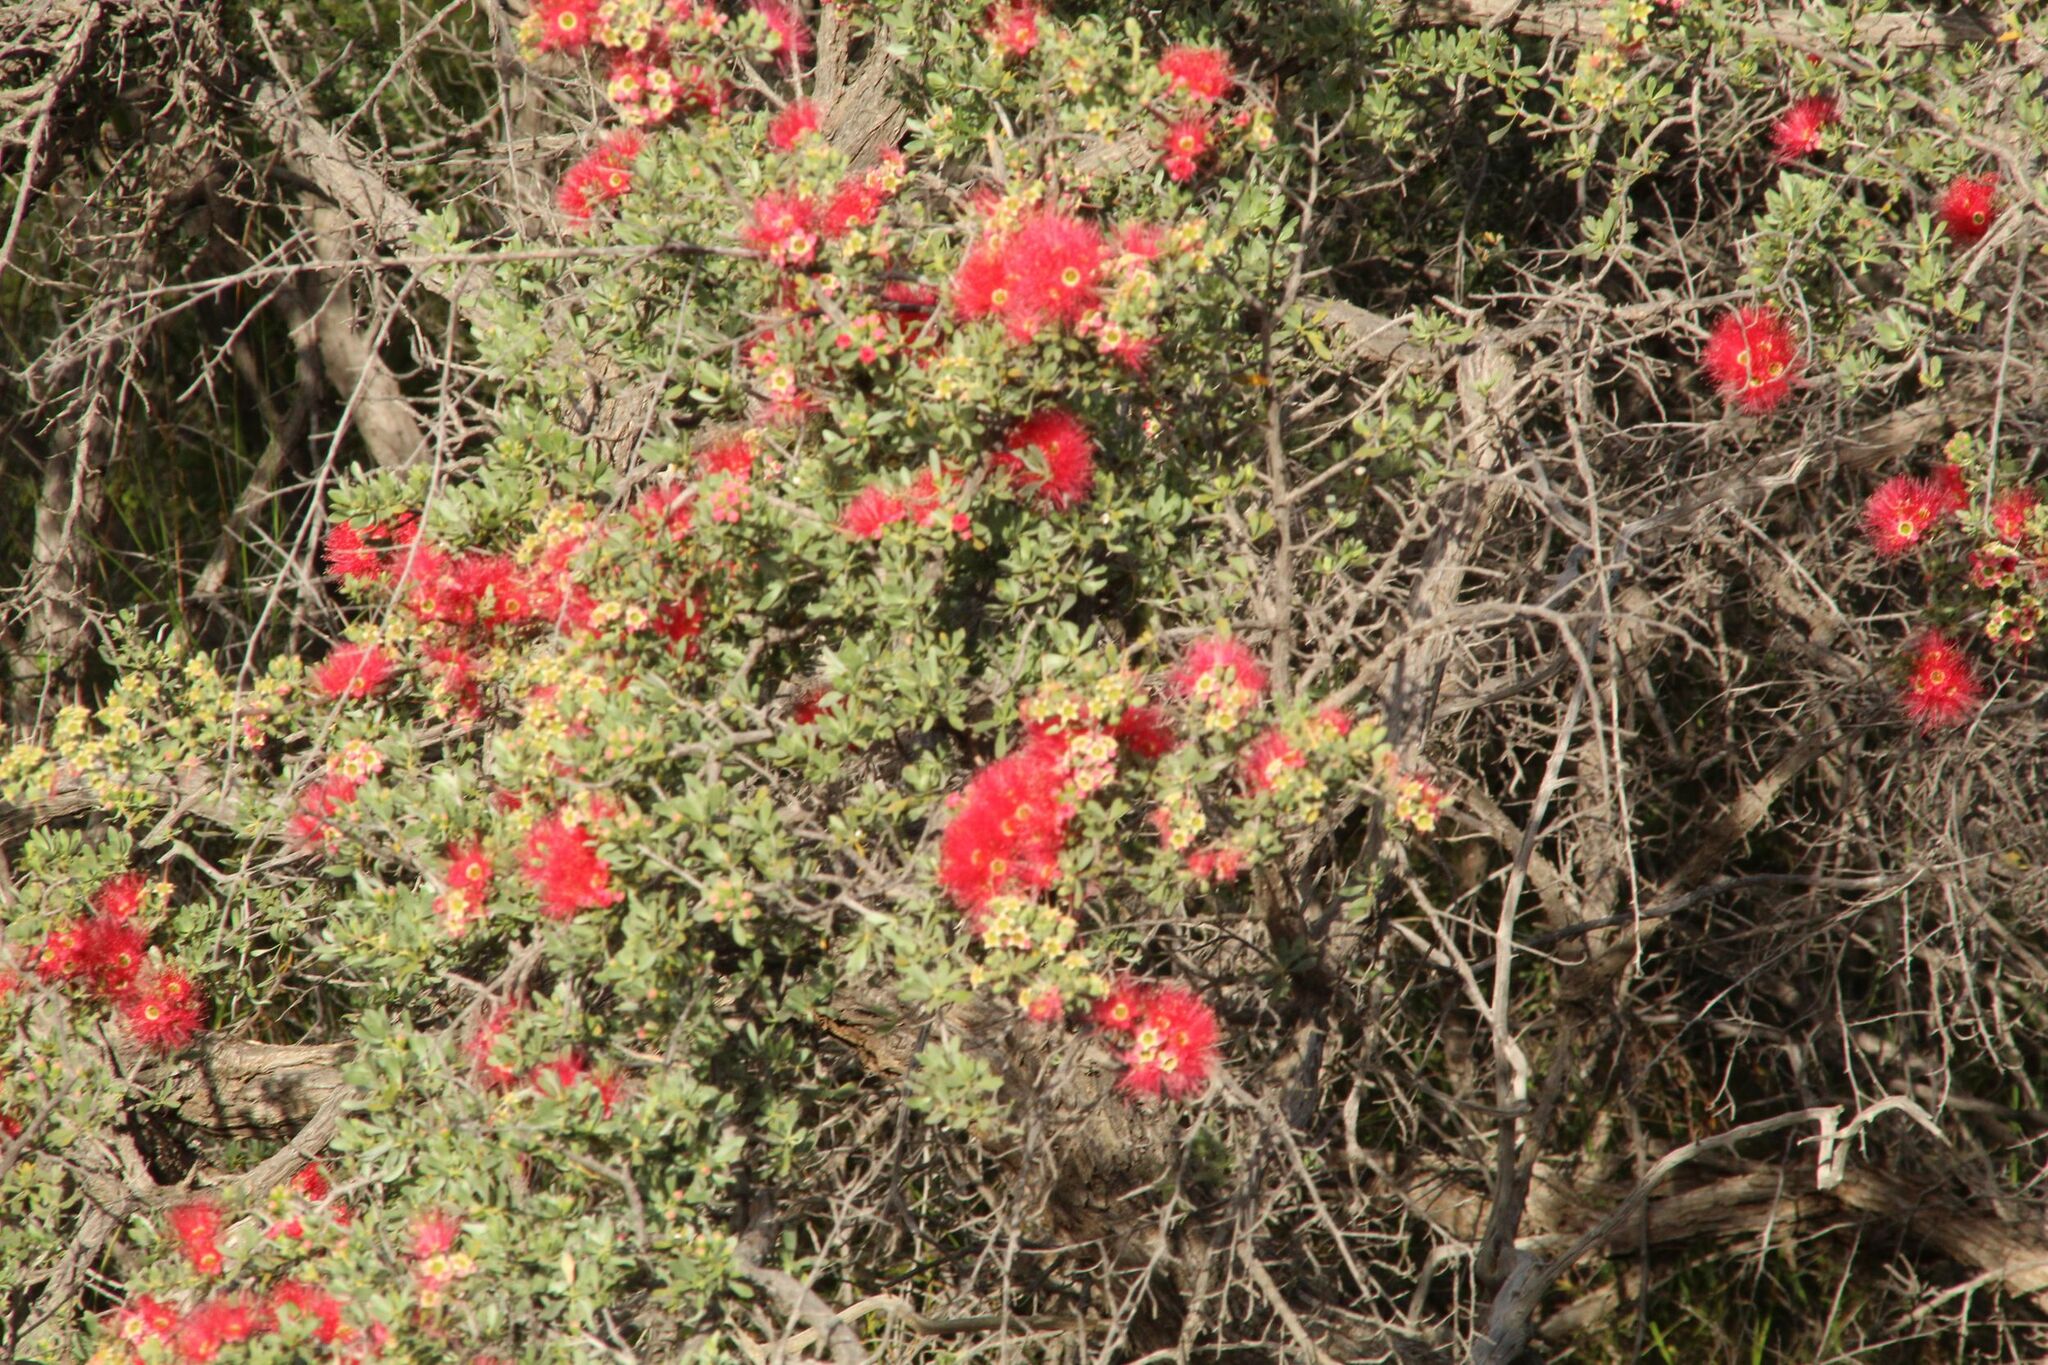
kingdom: Plantae
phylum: Tracheophyta
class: Magnoliopsida
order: Myrtales
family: Myrtaceae
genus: Kunzea
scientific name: Kunzea pulchella
